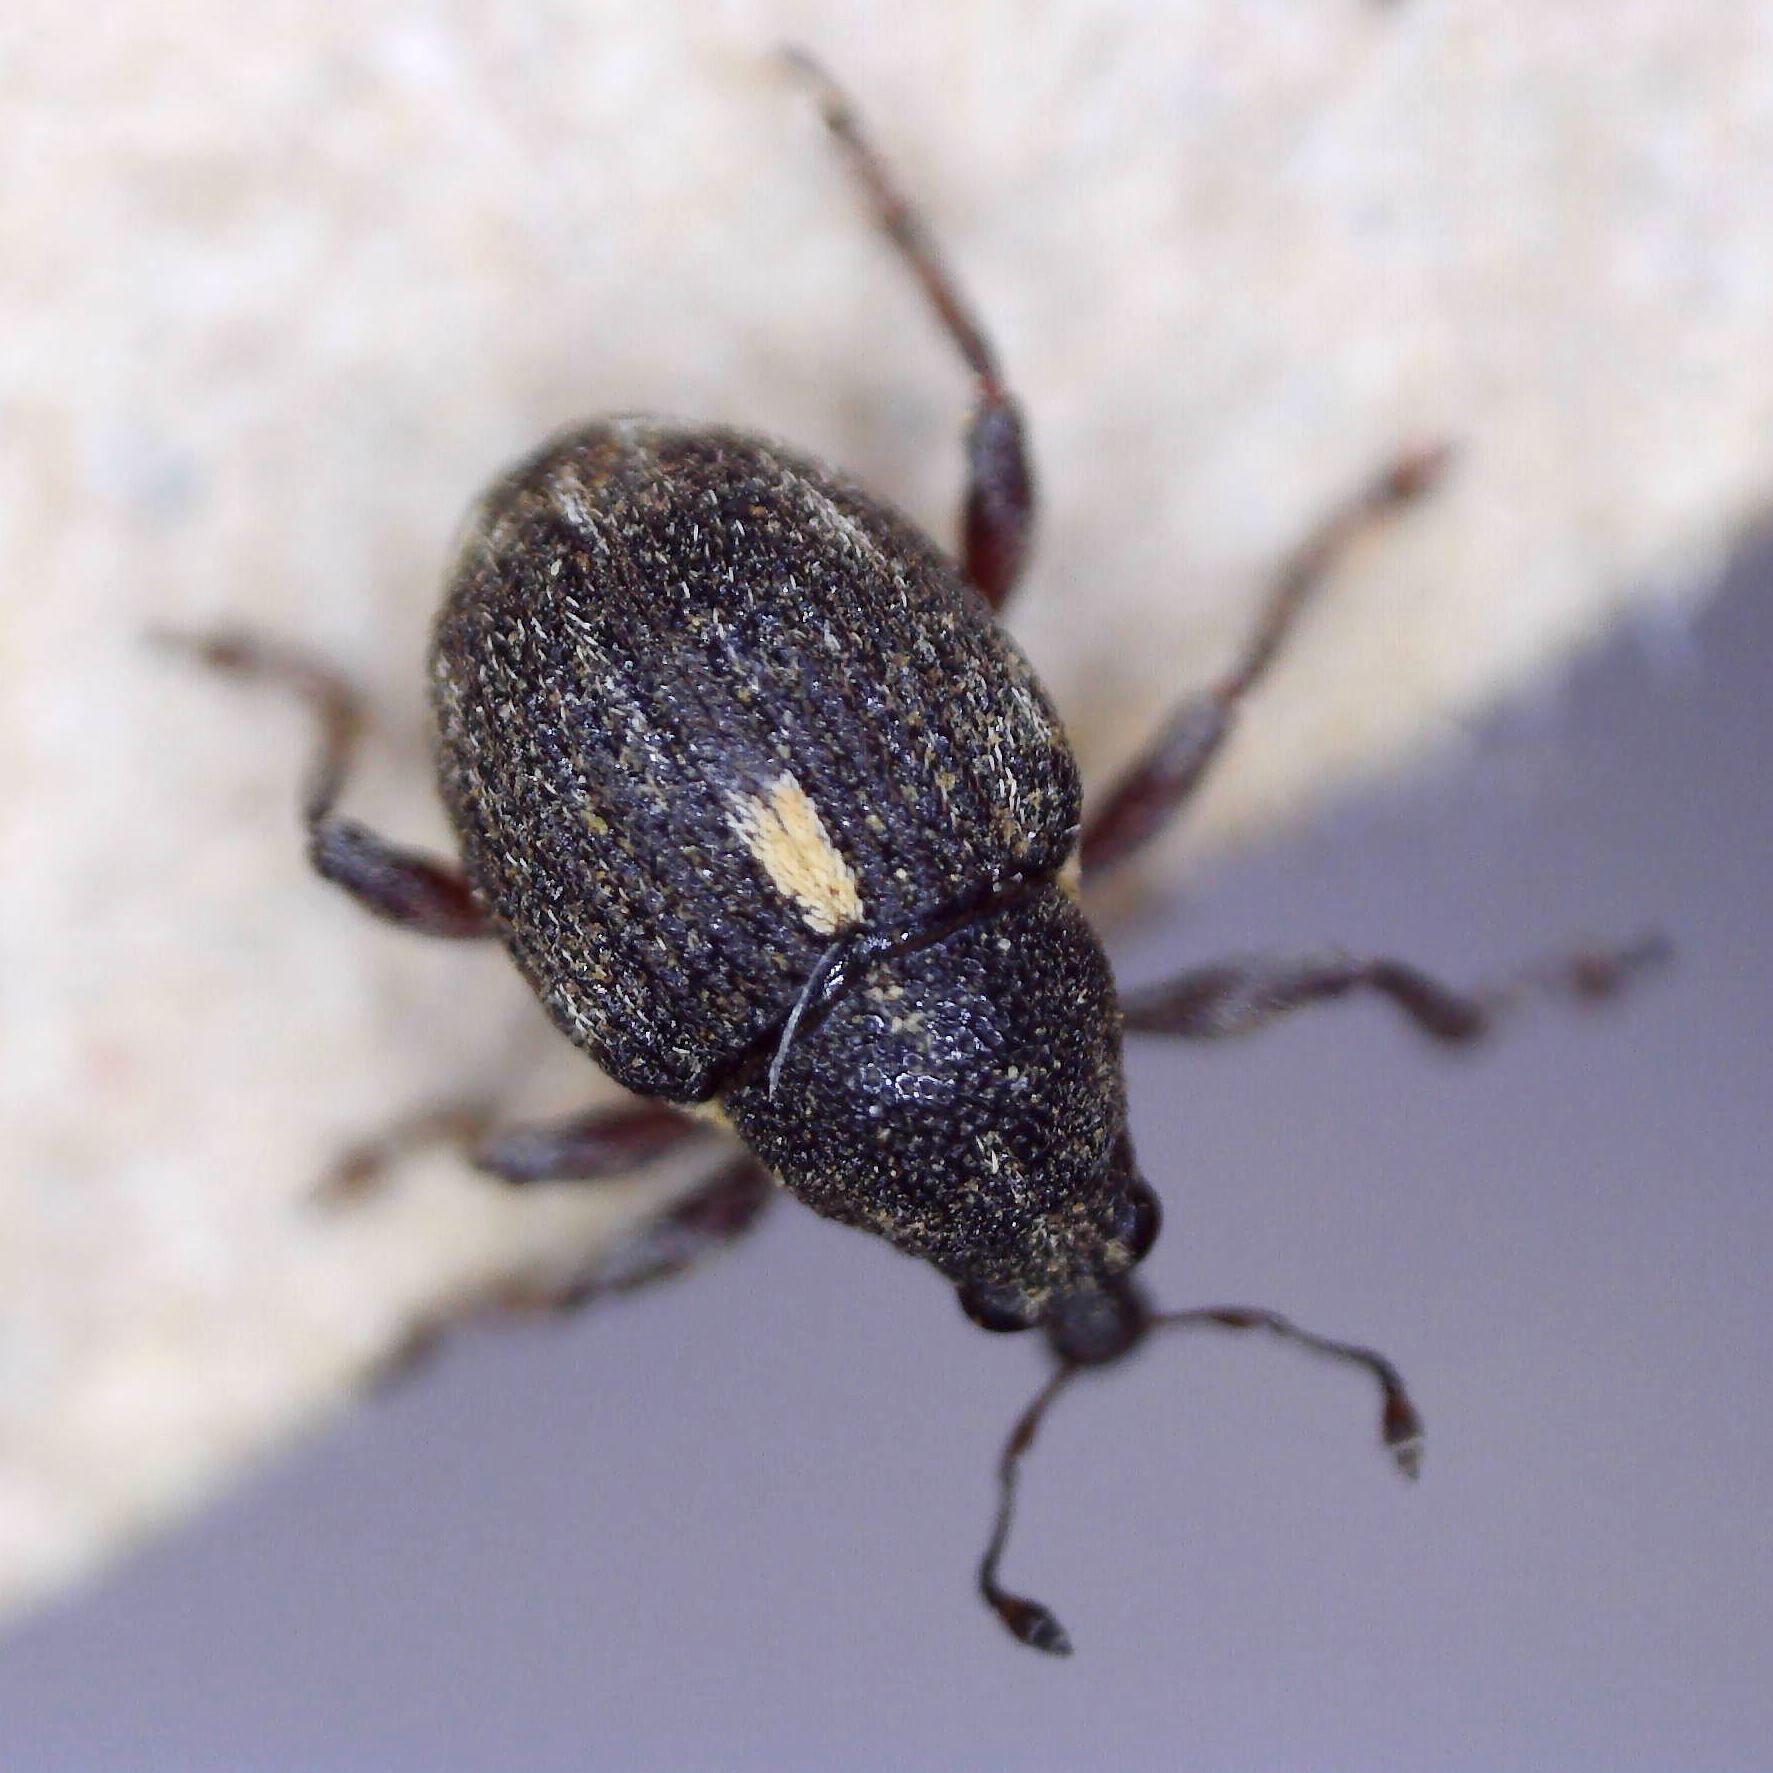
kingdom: Animalia
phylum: Arthropoda
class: Insecta
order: Coleoptera
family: Curculionidae
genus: Rhinoncus
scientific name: Rhinoncus leucostigma
